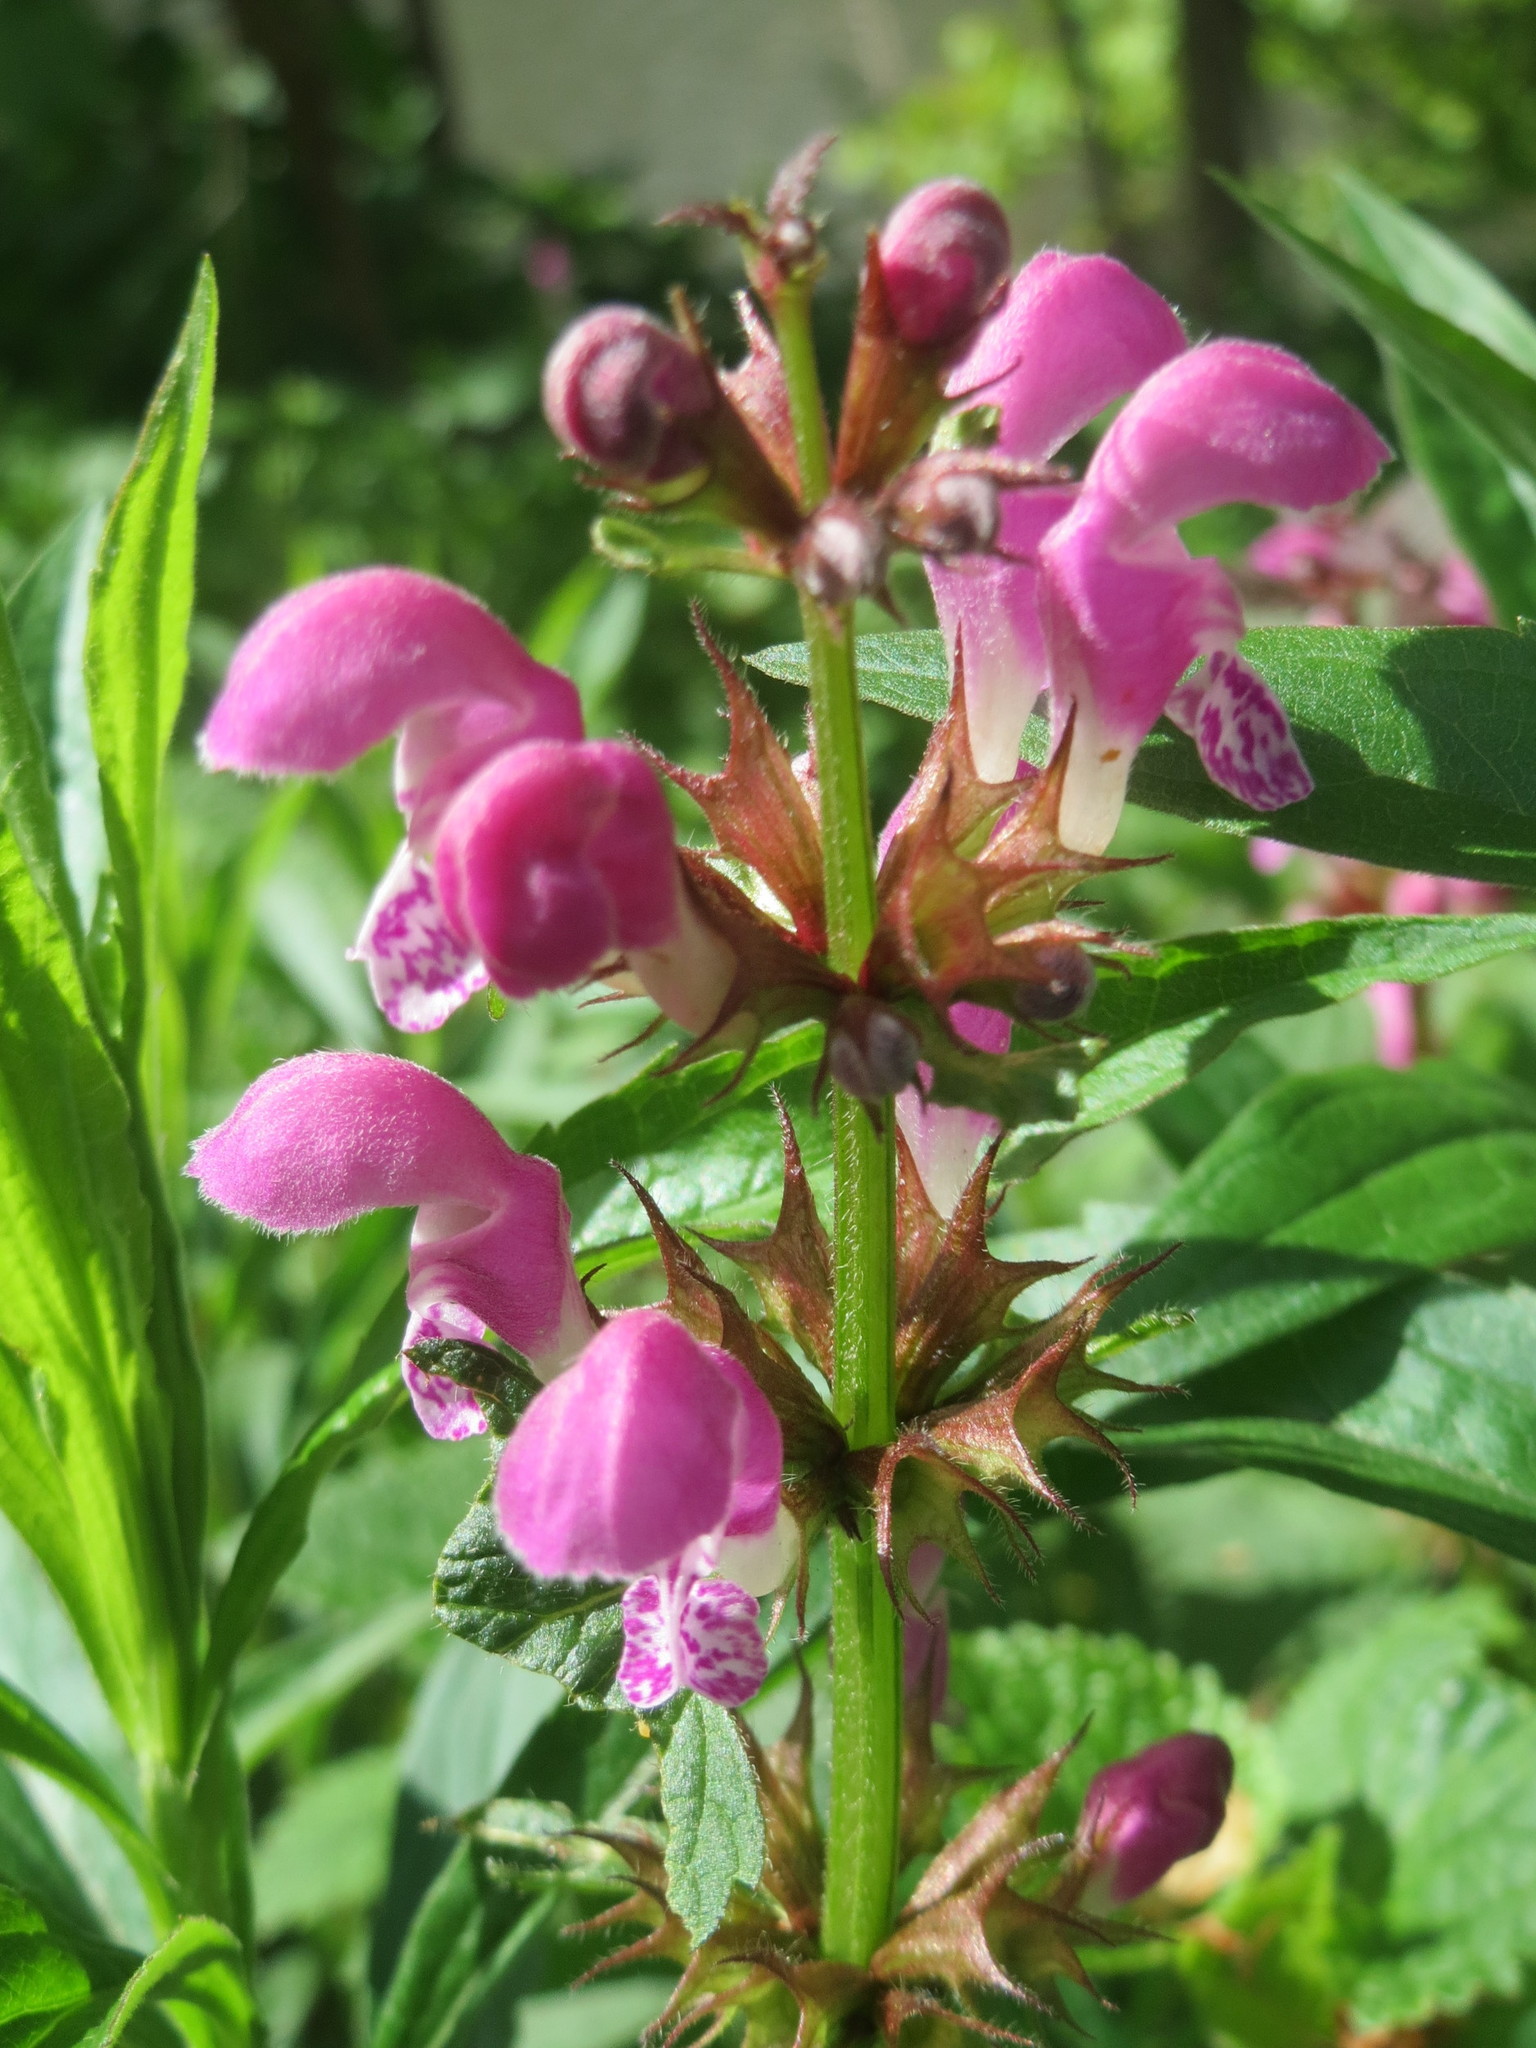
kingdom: Plantae
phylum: Tracheophyta
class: Magnoliopsida
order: Lamiales
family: Lamiaceae
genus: Lamium
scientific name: Lamium maculatum
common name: Spotted dead-nettle
